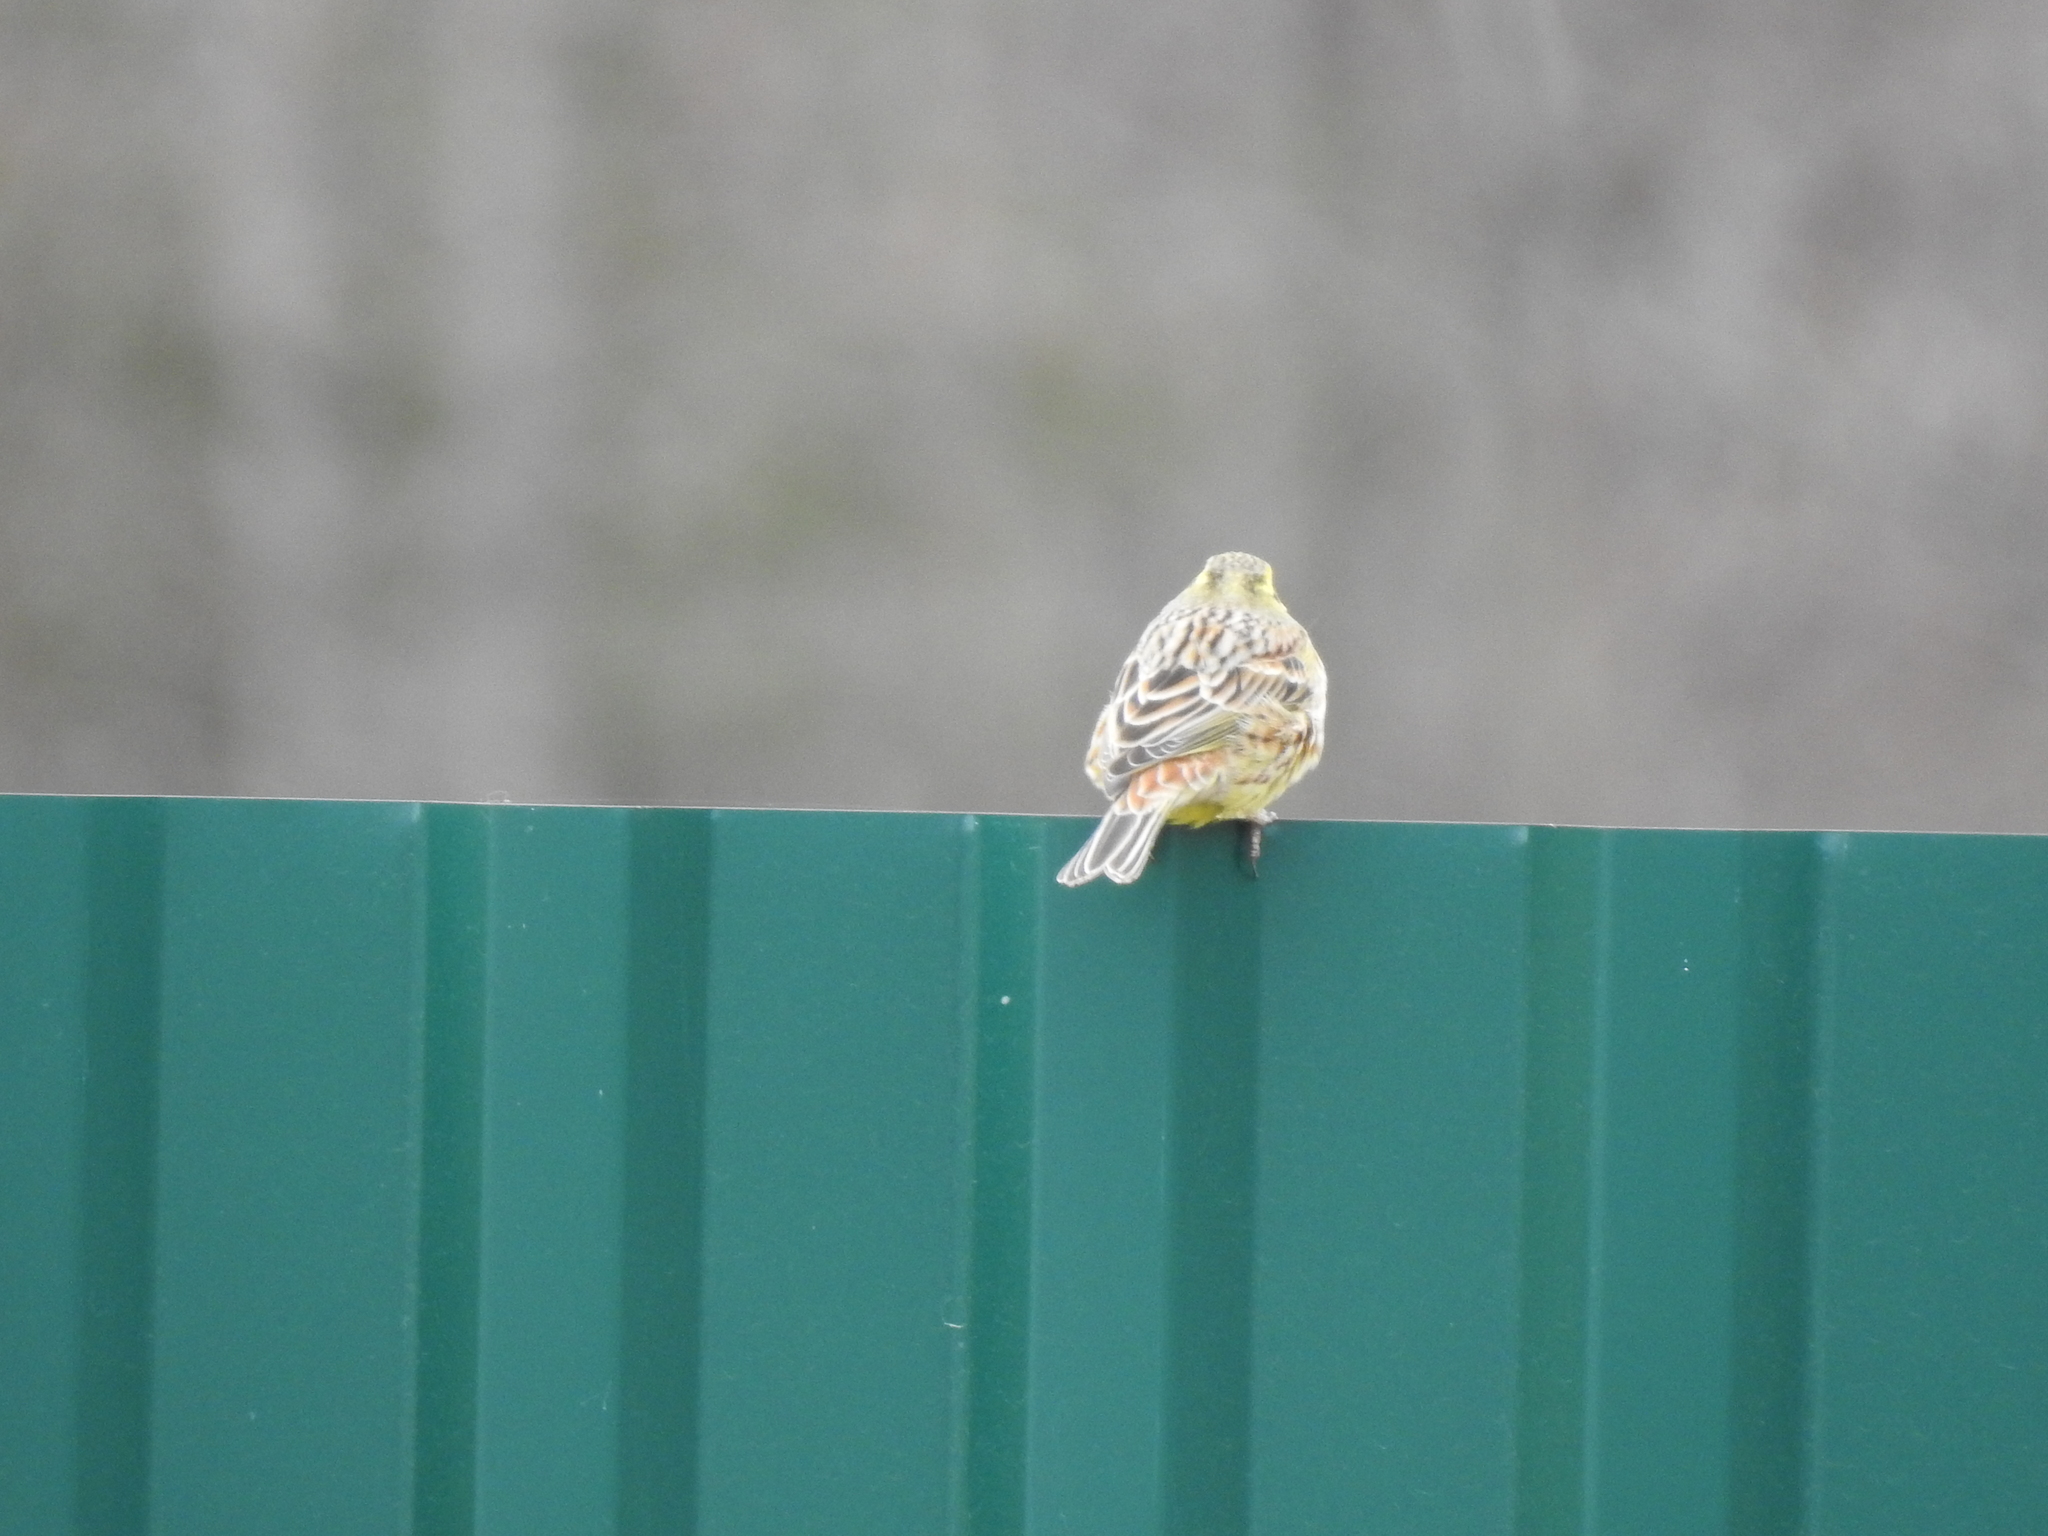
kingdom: Animalia
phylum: Chordata
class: Aves
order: Passeriformes
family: Emberizidae
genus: Emberiza
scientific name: Emberiza citrinella
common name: Yellowhammer
